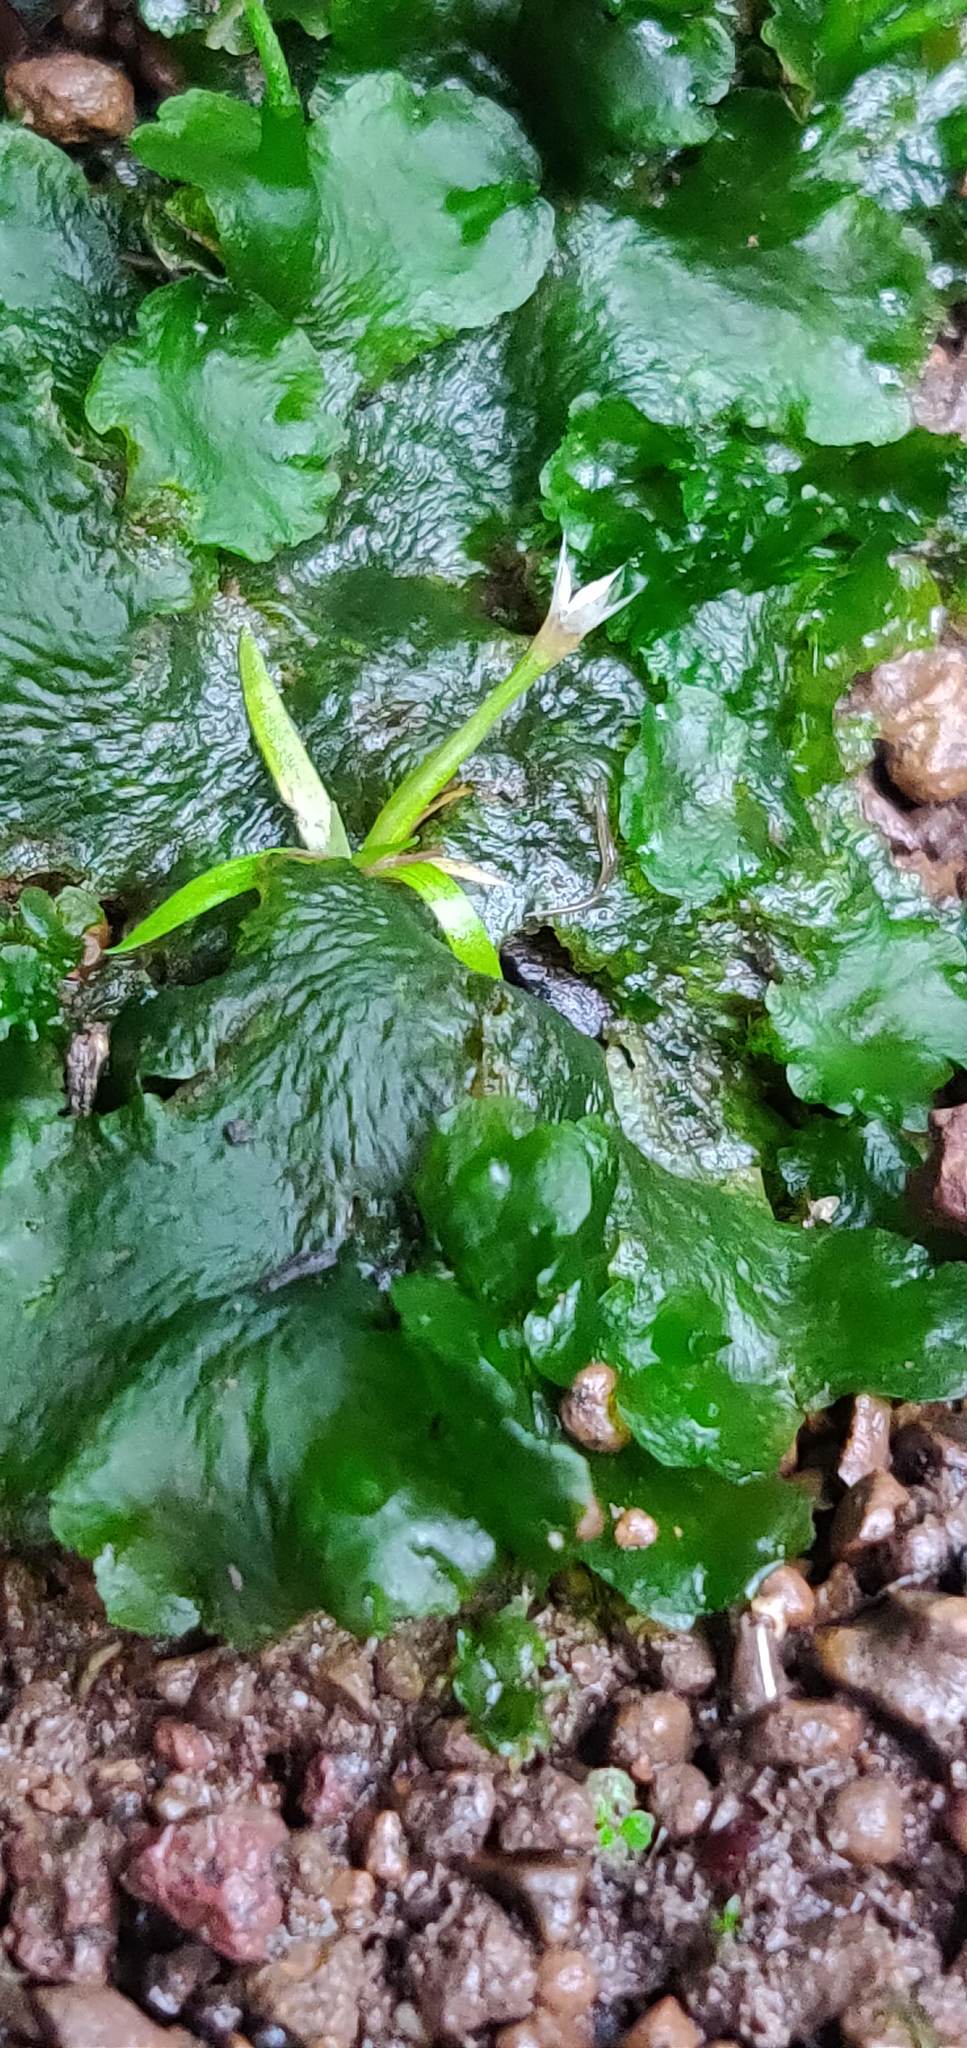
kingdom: Plantae
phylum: Tracheophyta
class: Liliopsida
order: Poales
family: Eriocaulaceae
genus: Eriocaulon
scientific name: Eriocaulon xeranthemum
